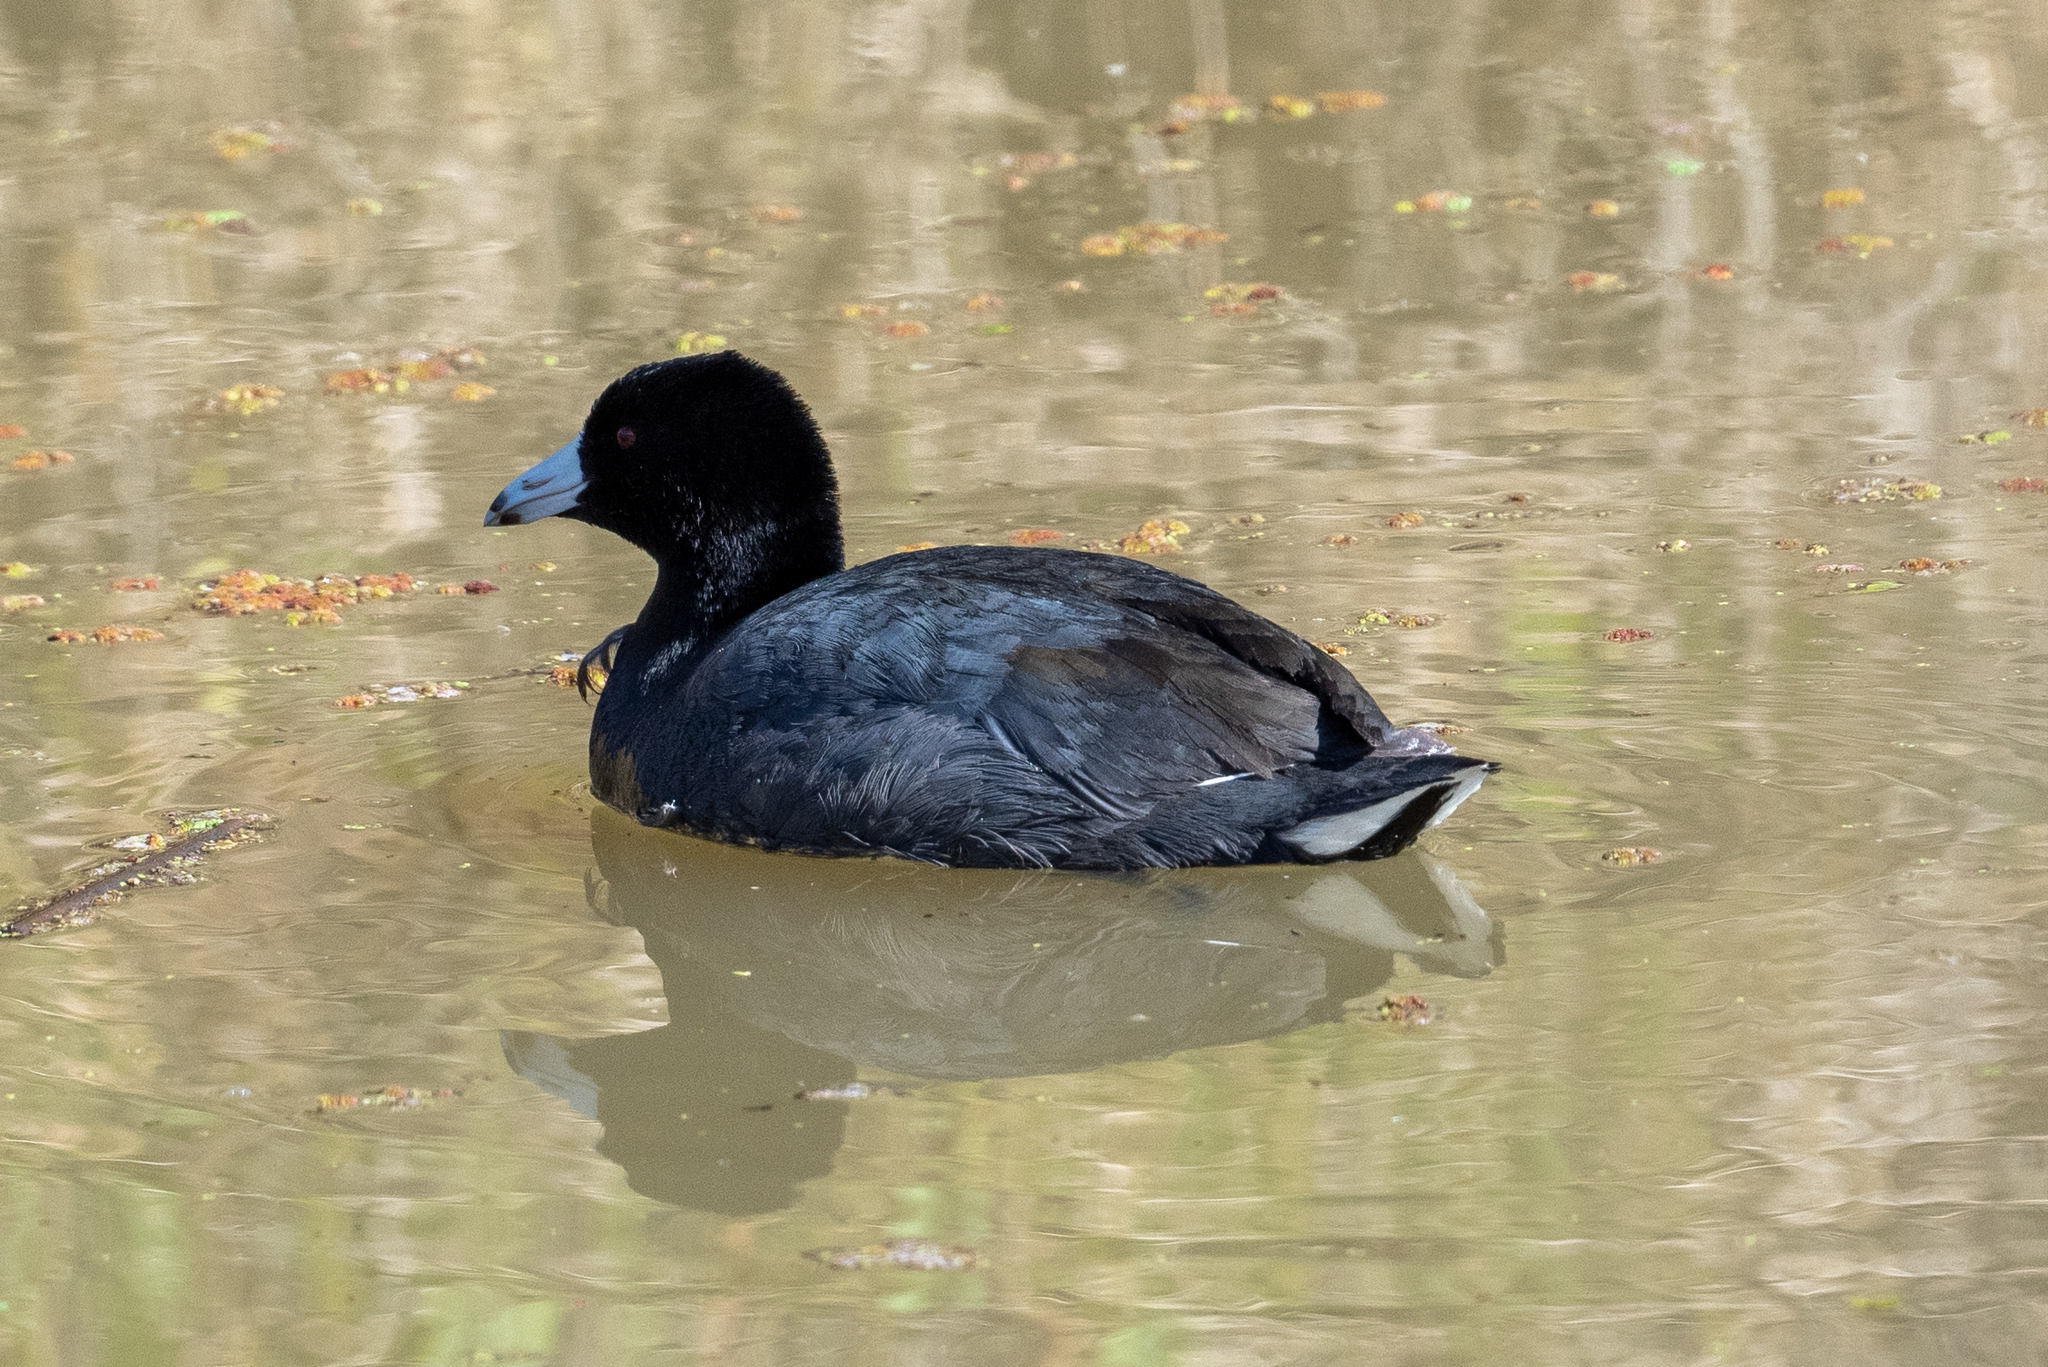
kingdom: Animalia
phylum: Chordata
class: Aves
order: Gruiformes
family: Rallidae
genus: Fulica
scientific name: Fulica americana
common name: American coot
